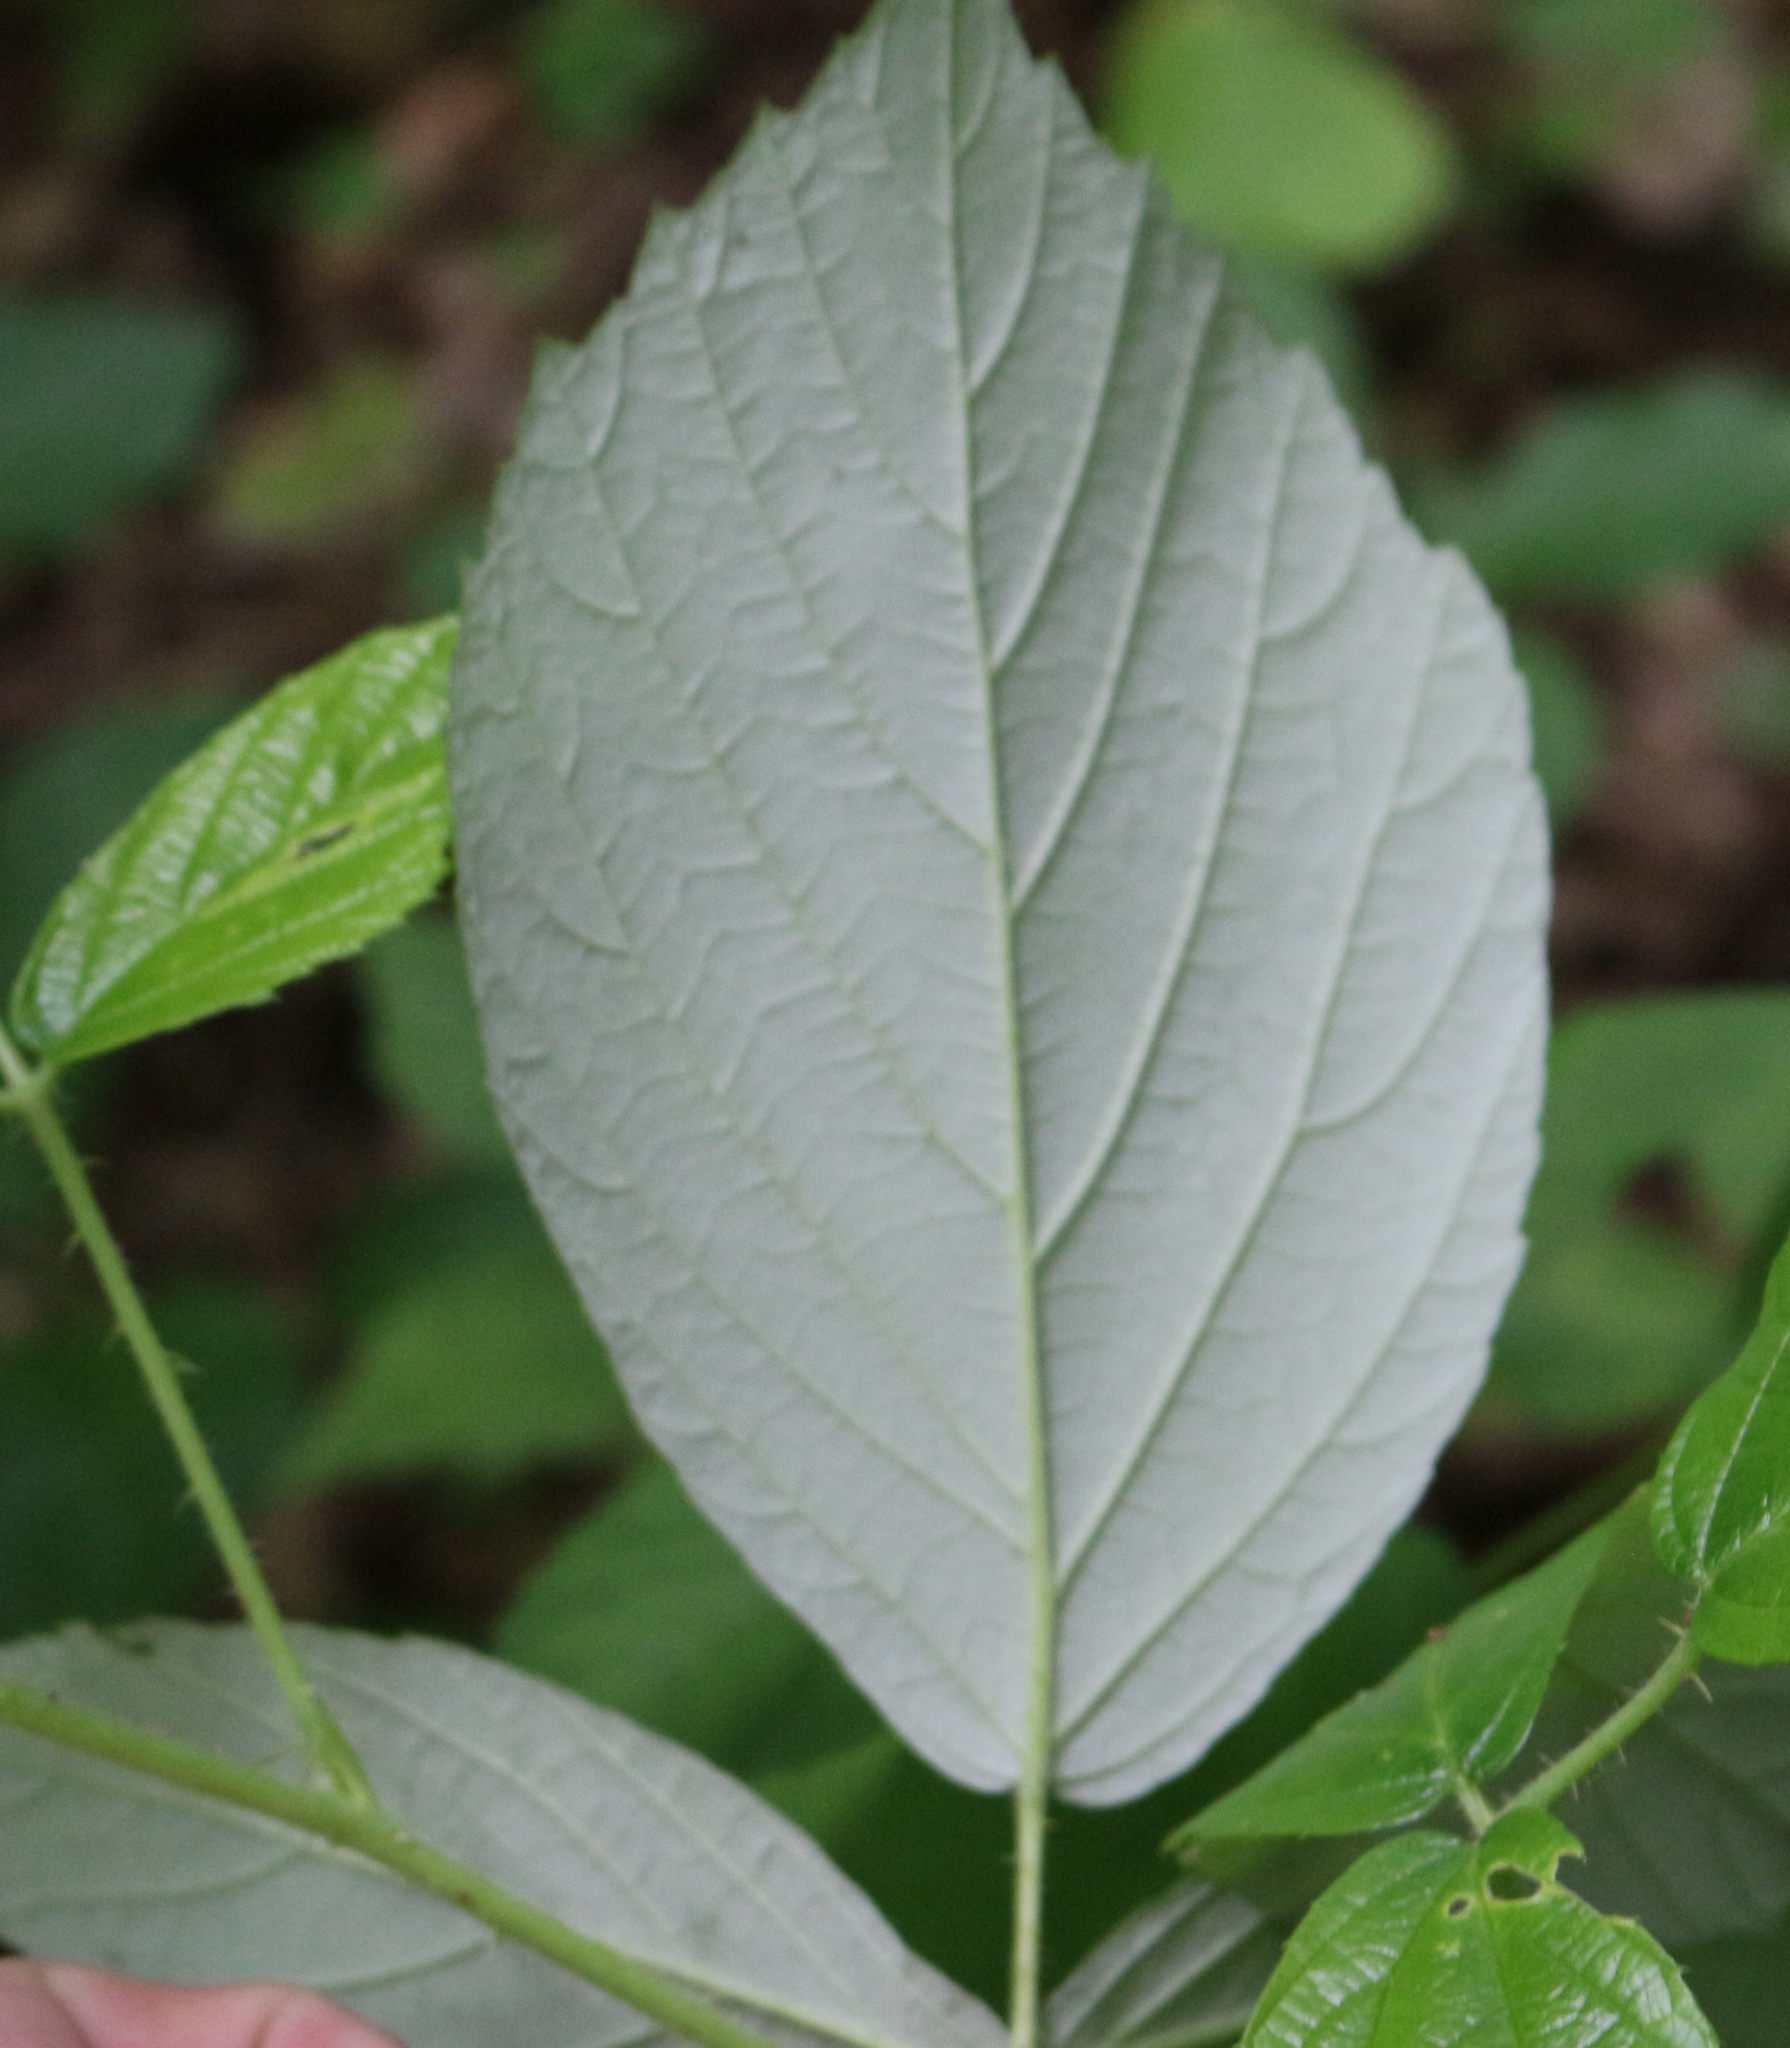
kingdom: Plantae
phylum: Tracheophyta
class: Magnoliopsida
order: Rosales
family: Rosaceae
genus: Rubus
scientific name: Rubus hirtus
